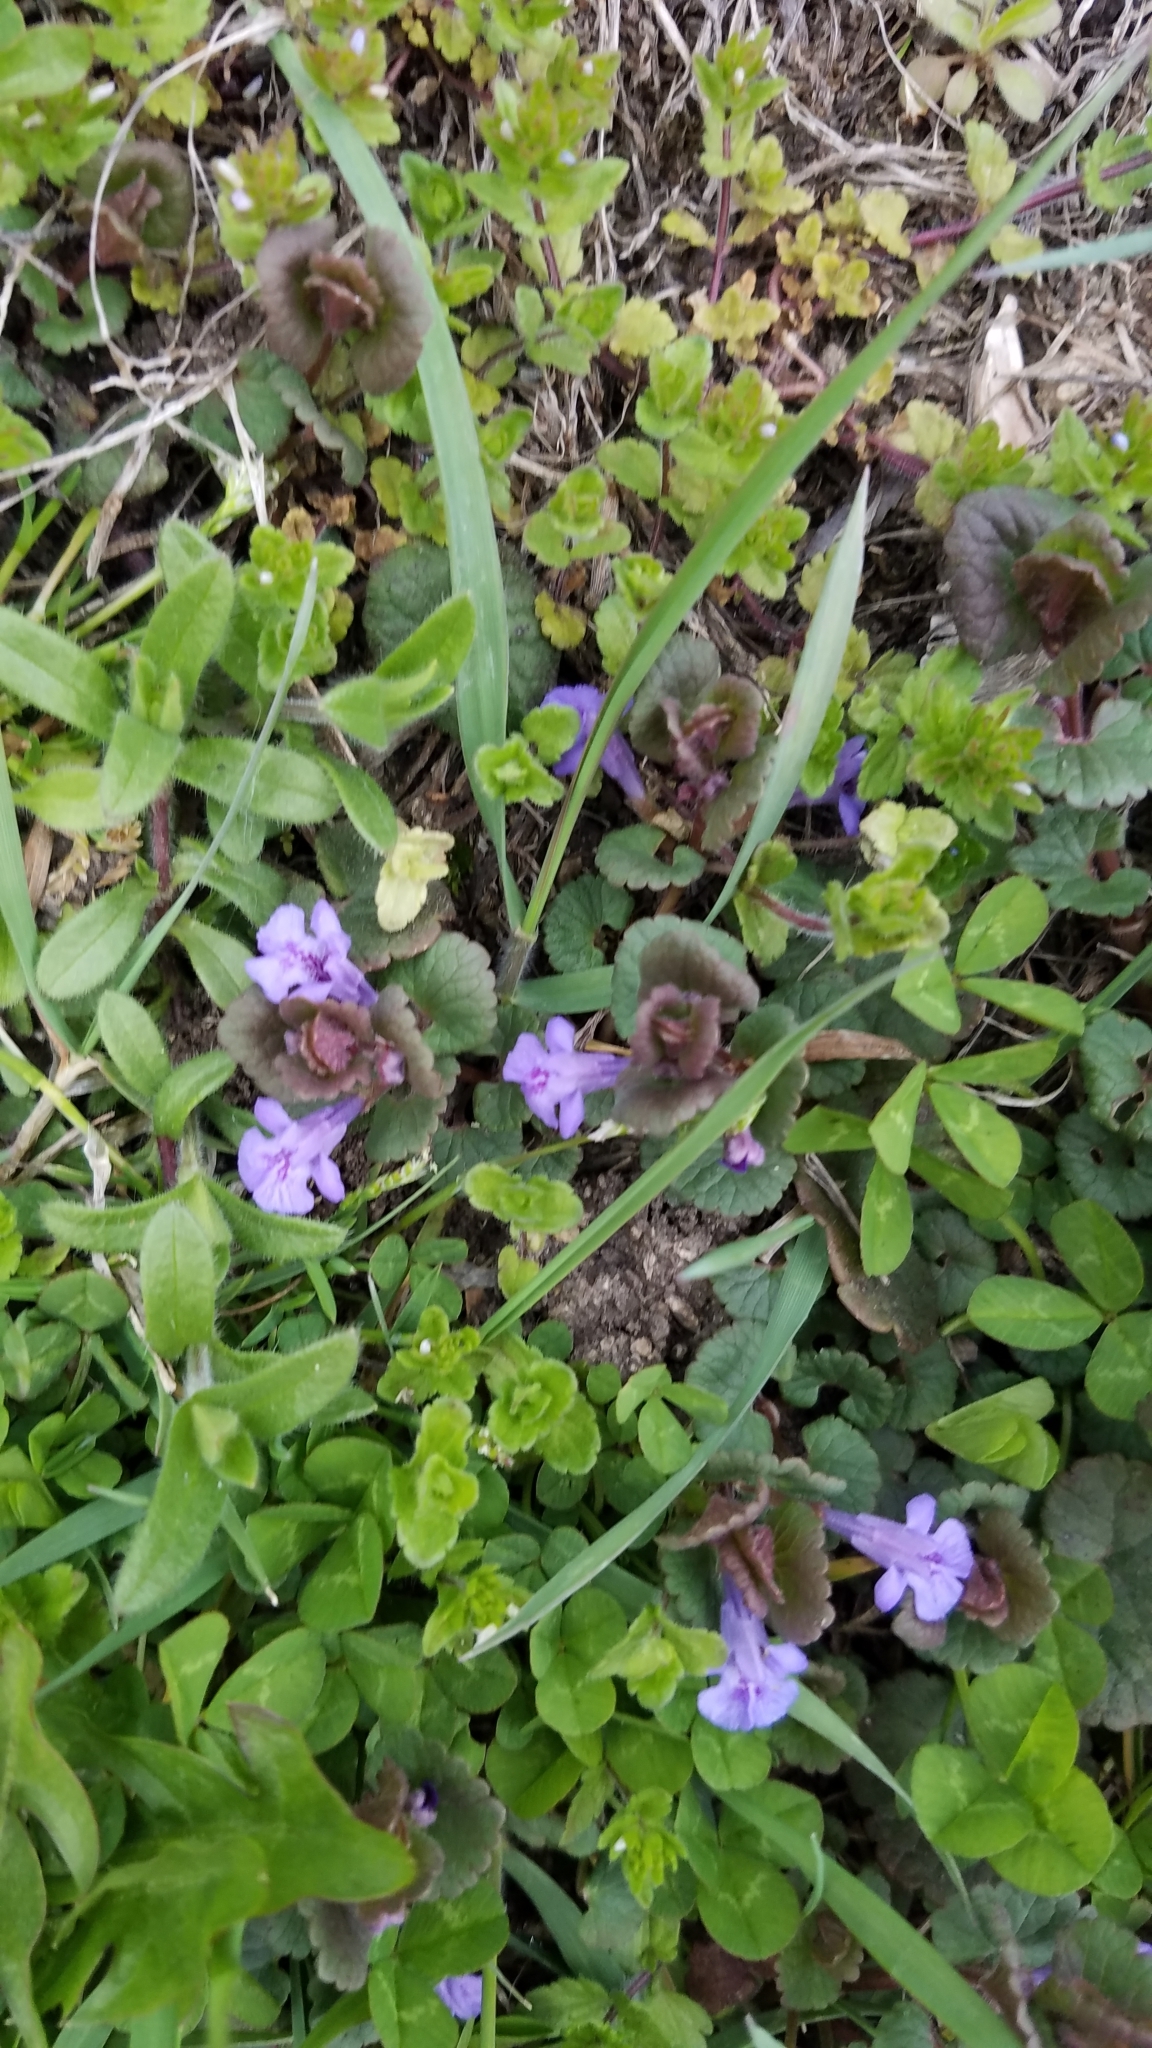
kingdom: Plantae
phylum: Tracheophyta
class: Magnoliopsida
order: Lamiales
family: Lamiaceae
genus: Glechoma
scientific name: Glechoma hederacea
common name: Ground ivy
